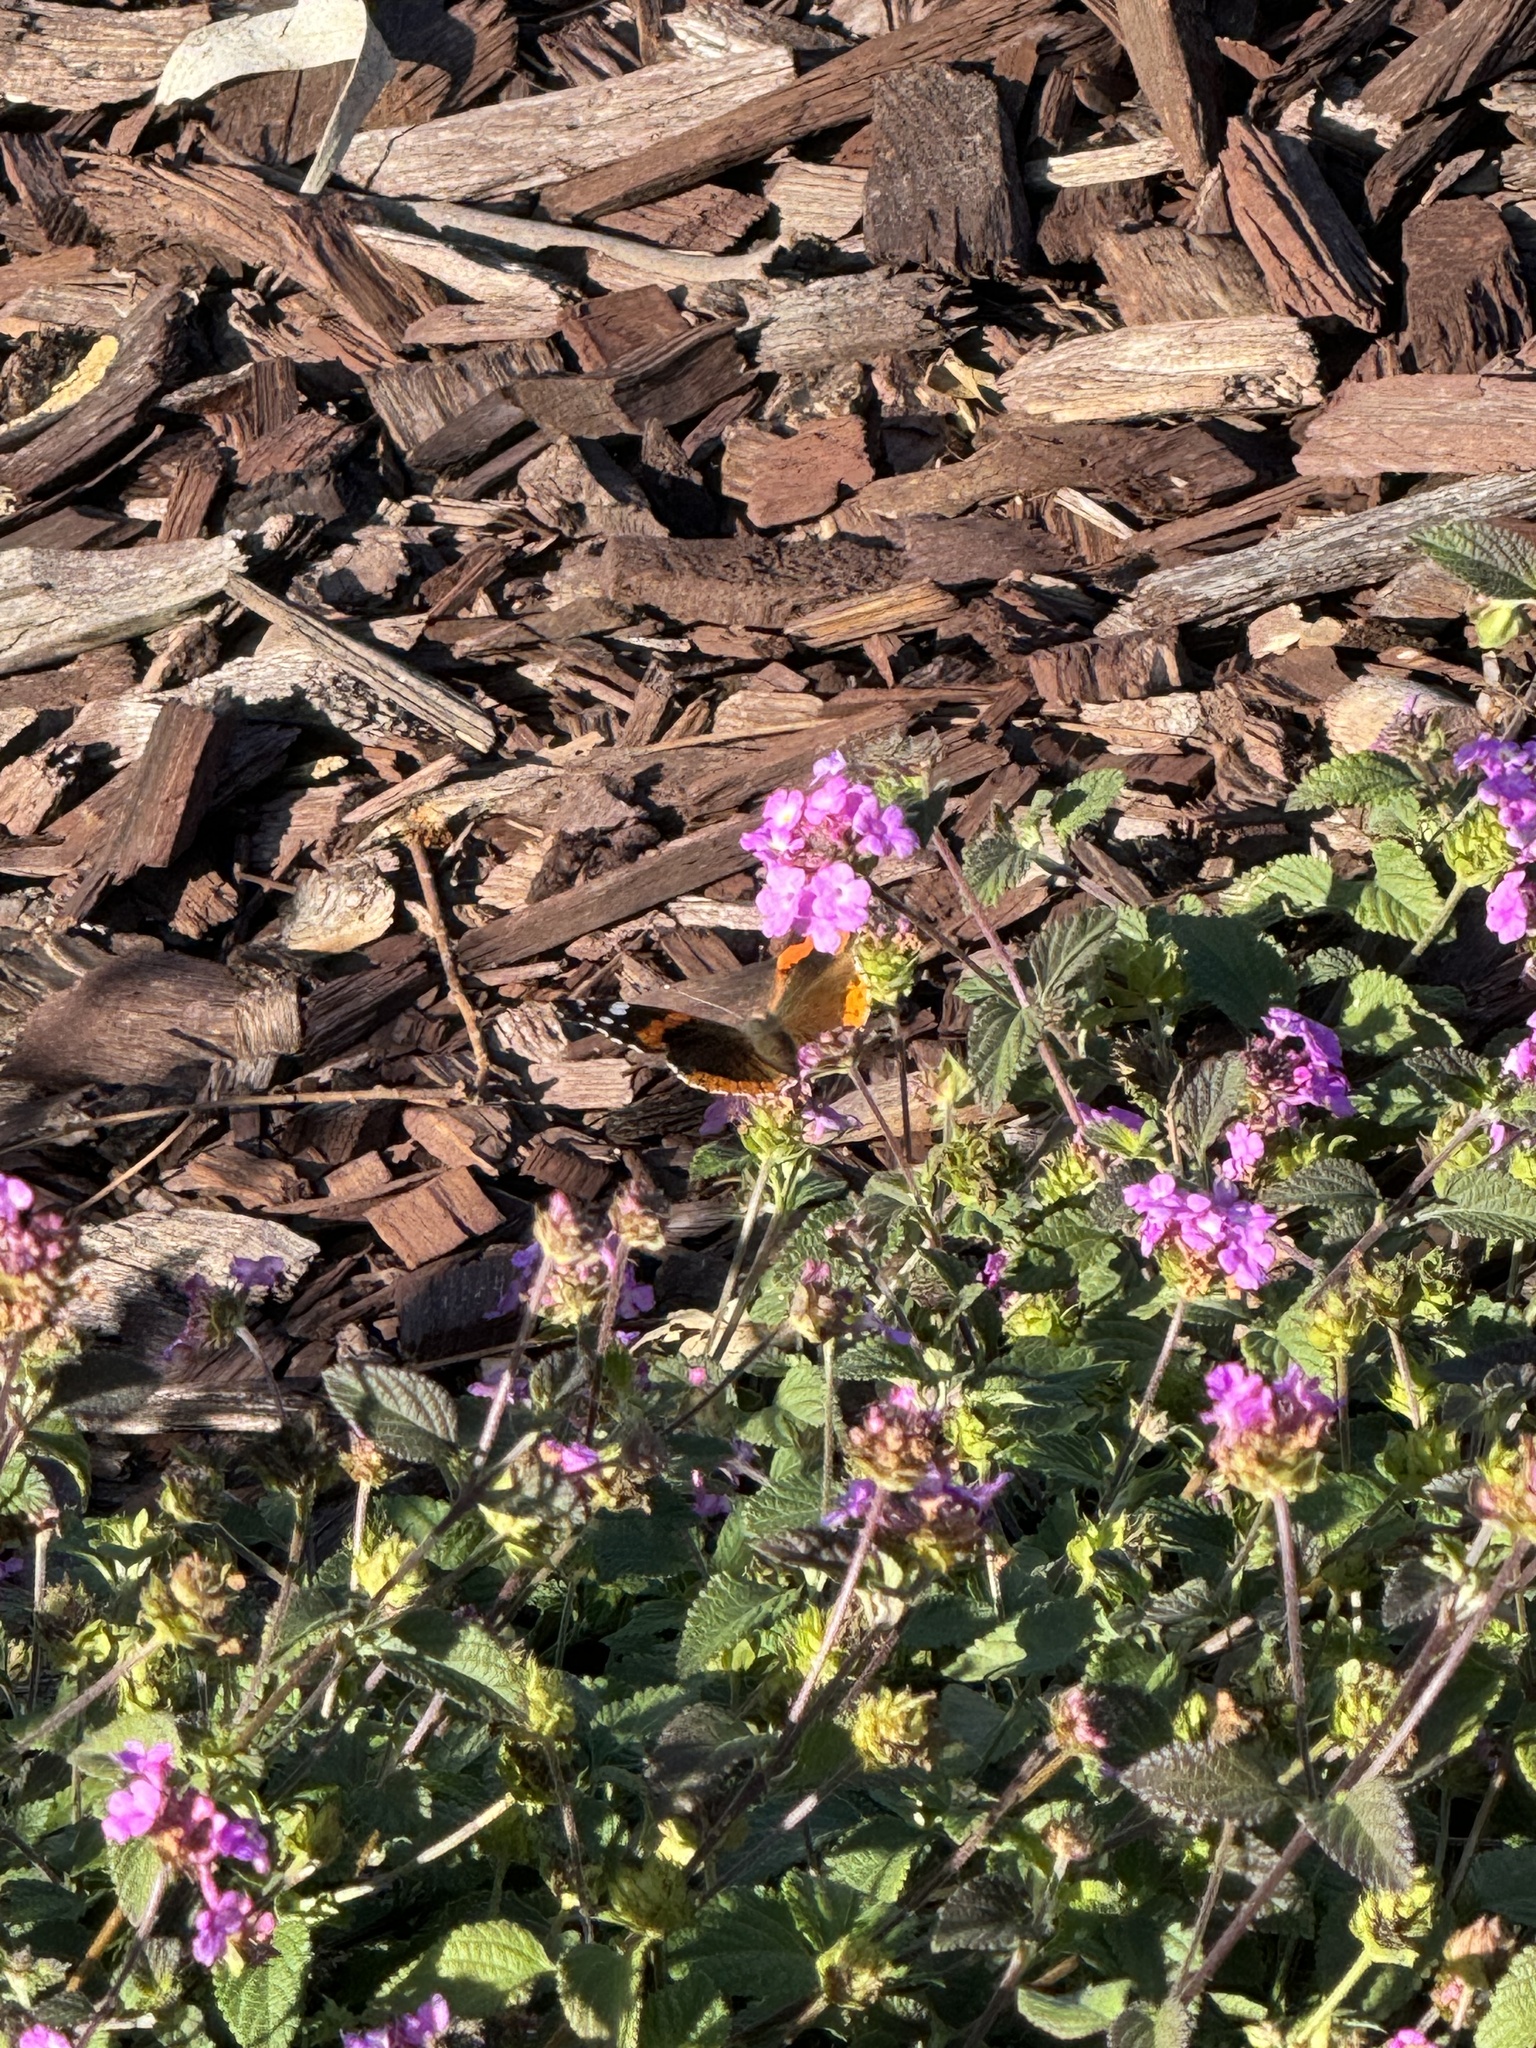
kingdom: Animalia
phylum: Arthropoda
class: Insecta
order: Lepidoptera
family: Nymphalidae
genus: Vanessa
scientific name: Vanessa atalanta
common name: Red admiral
